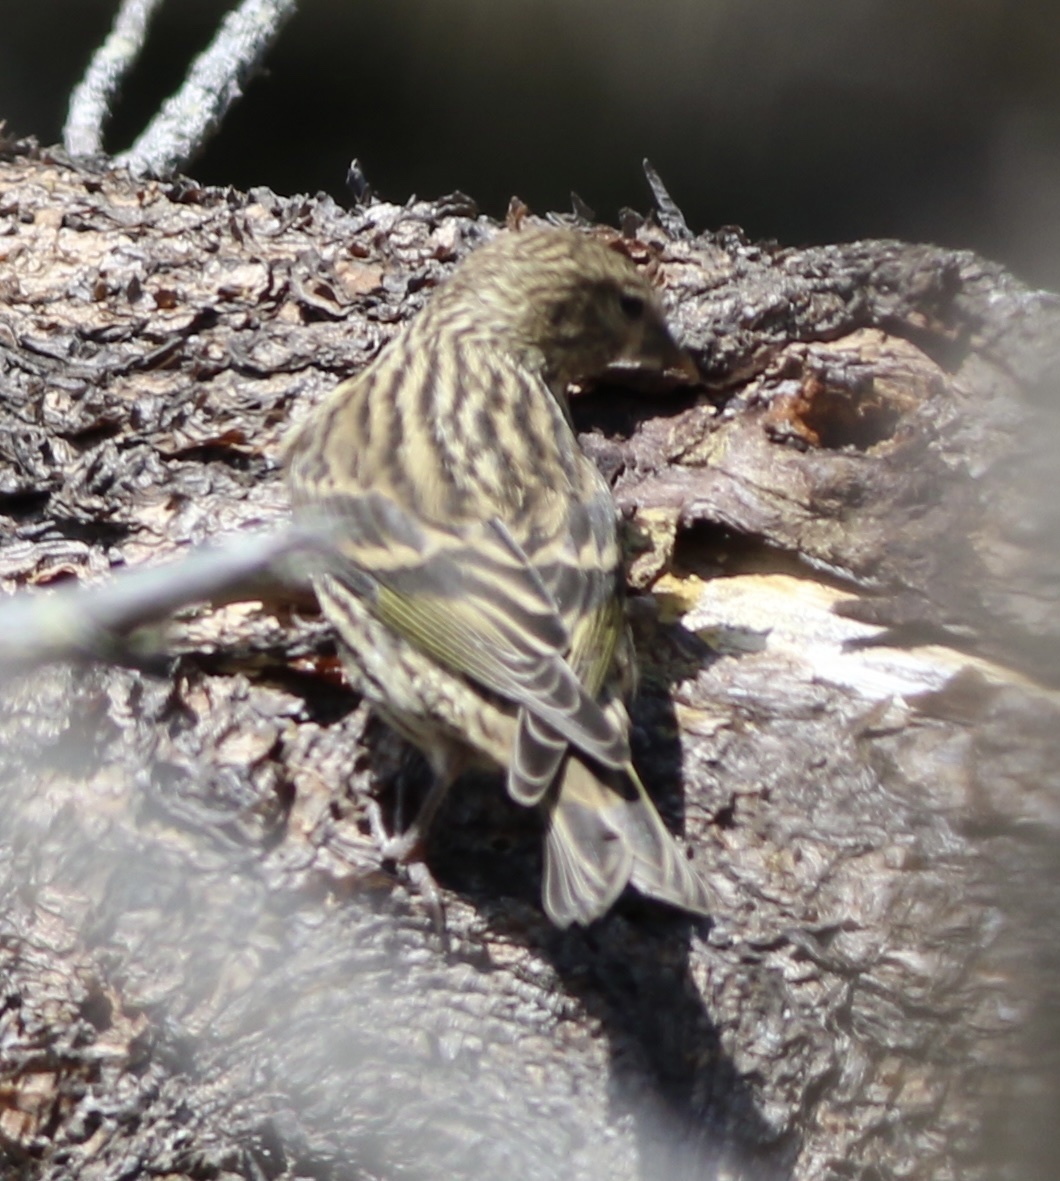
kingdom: Animalia
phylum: Chordata
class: Aves
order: Passeriformes
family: Fringillidae
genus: Spinus
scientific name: Spinus pinus
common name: Pine siskin
